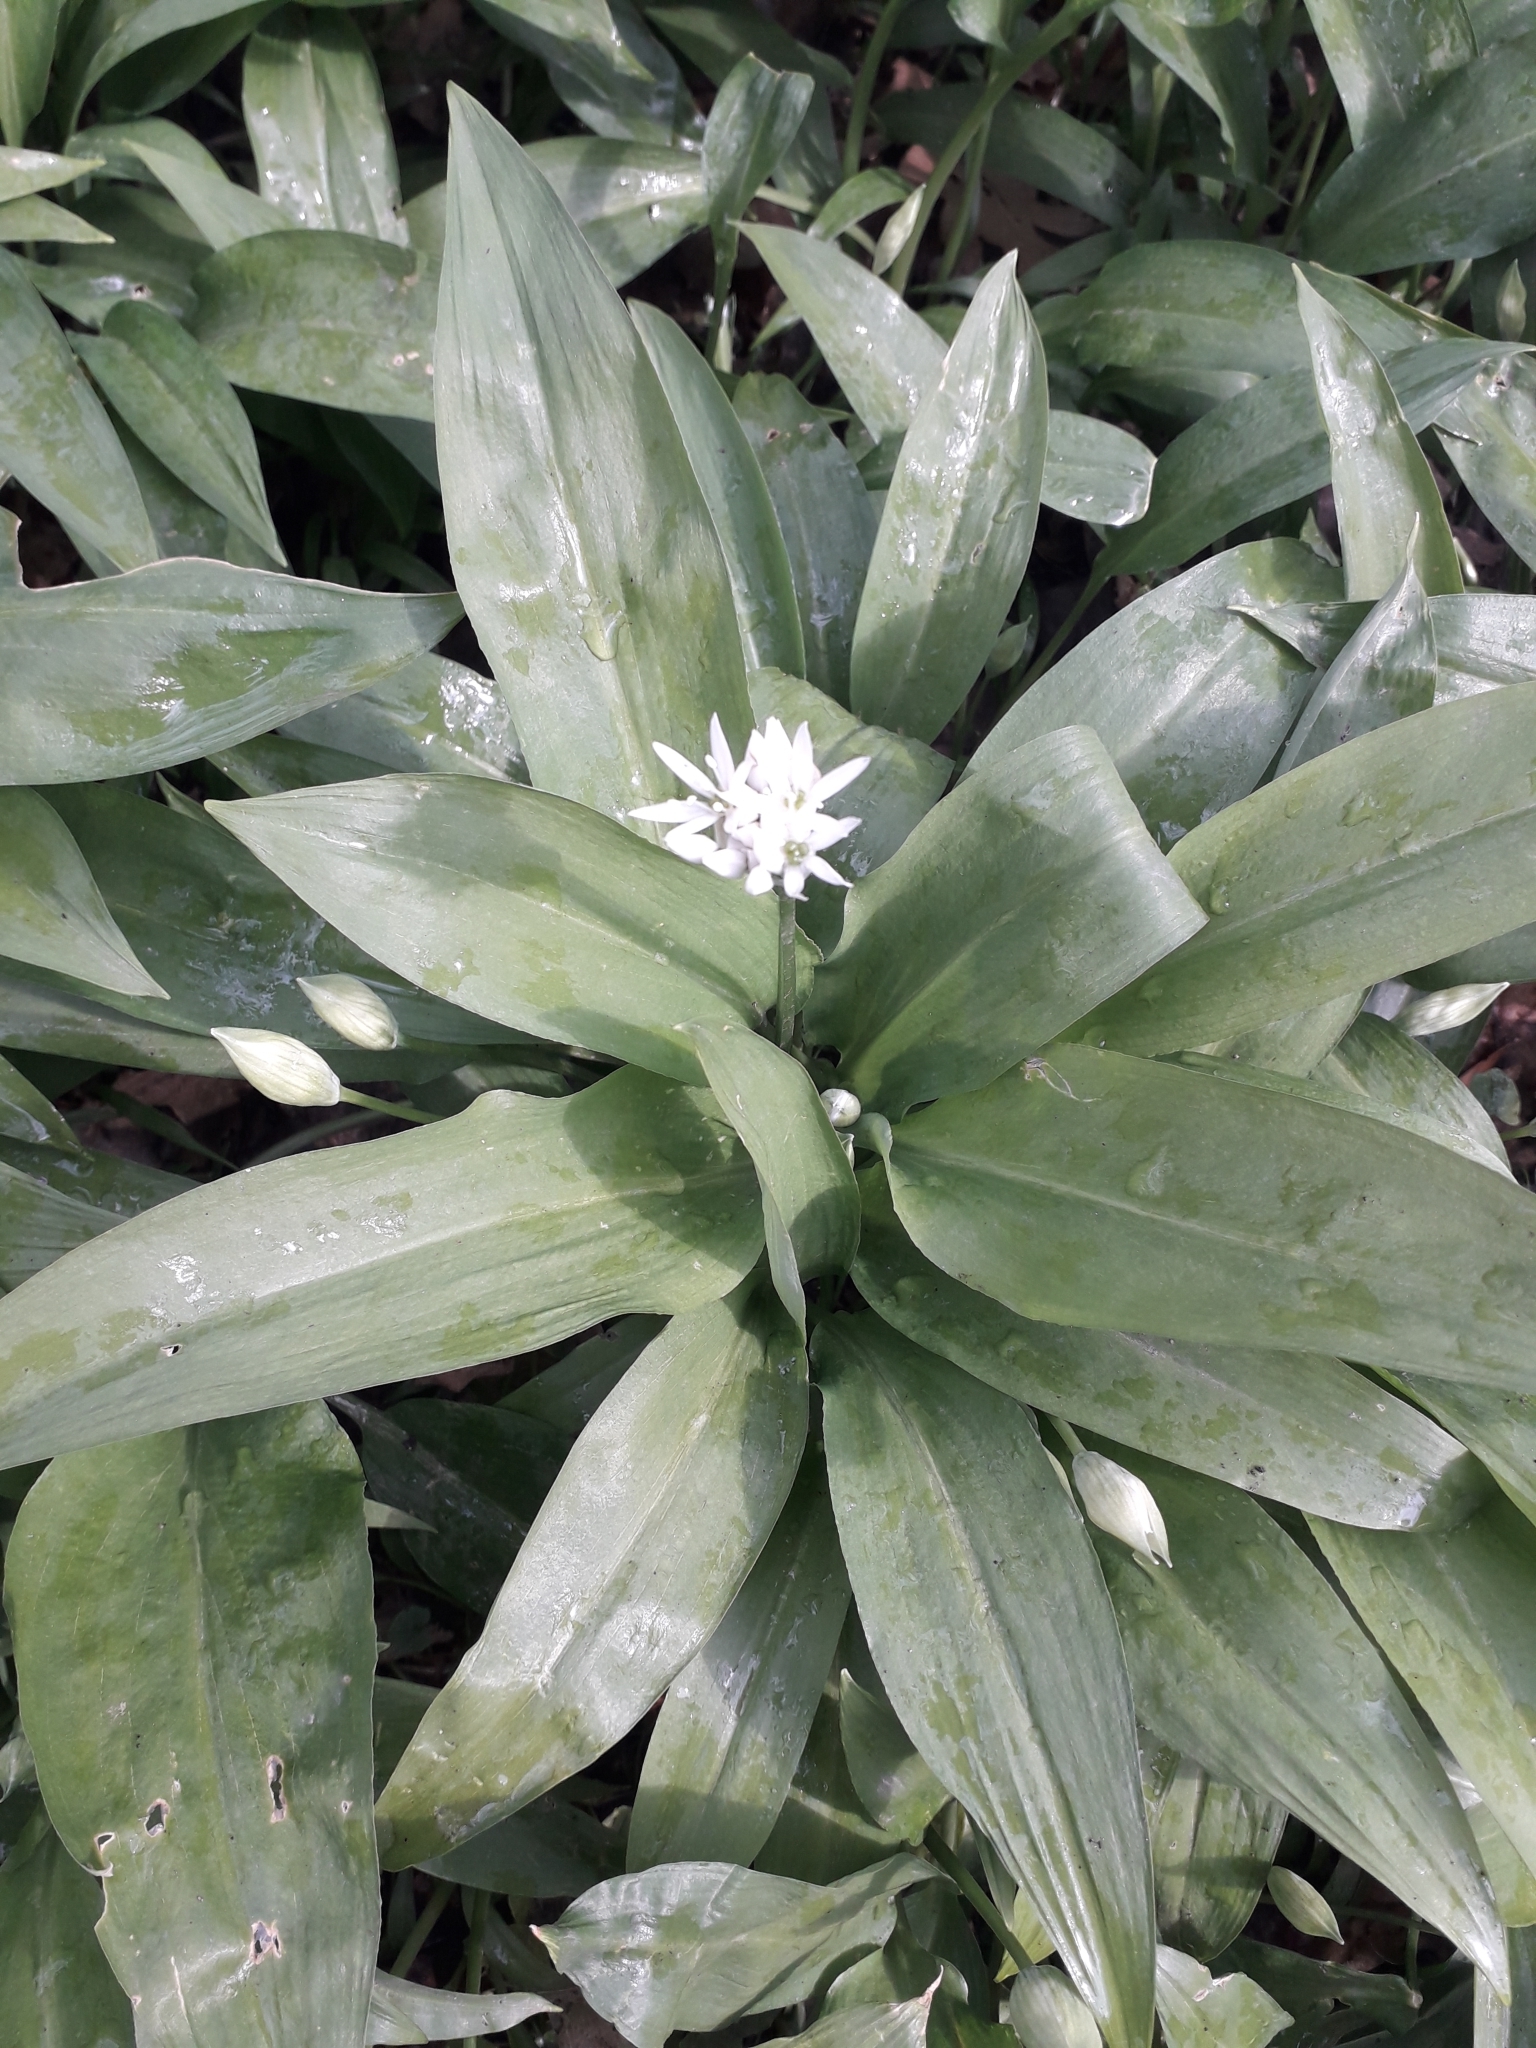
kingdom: Plantae
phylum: Tracheophyta
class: Liliopsida
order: Asparagales
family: Amaryllidaceae
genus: Allium
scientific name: Allium ursinum
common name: Ramsons
